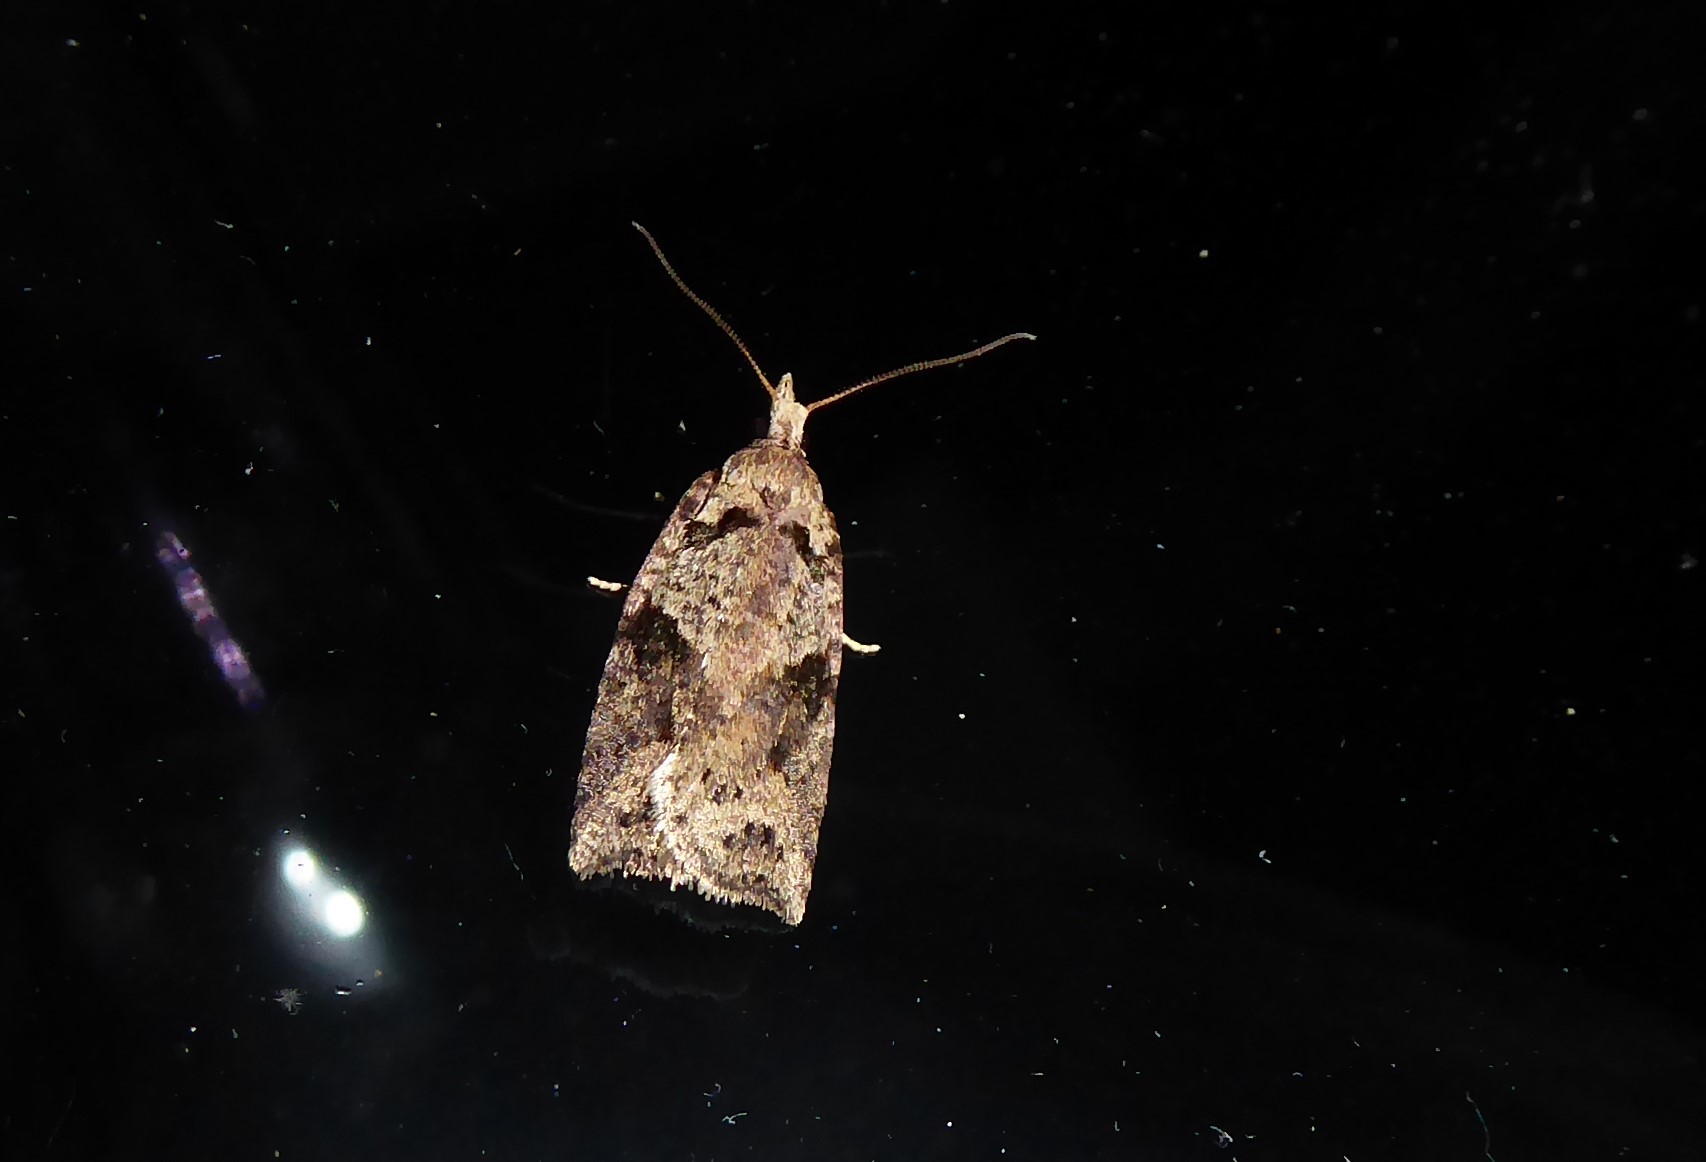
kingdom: Animalia
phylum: Arthropoda
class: Insecta
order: Lepidoptera
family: Tortricidae
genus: Ctenopseustis
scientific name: Ctenopseustis obliquana
